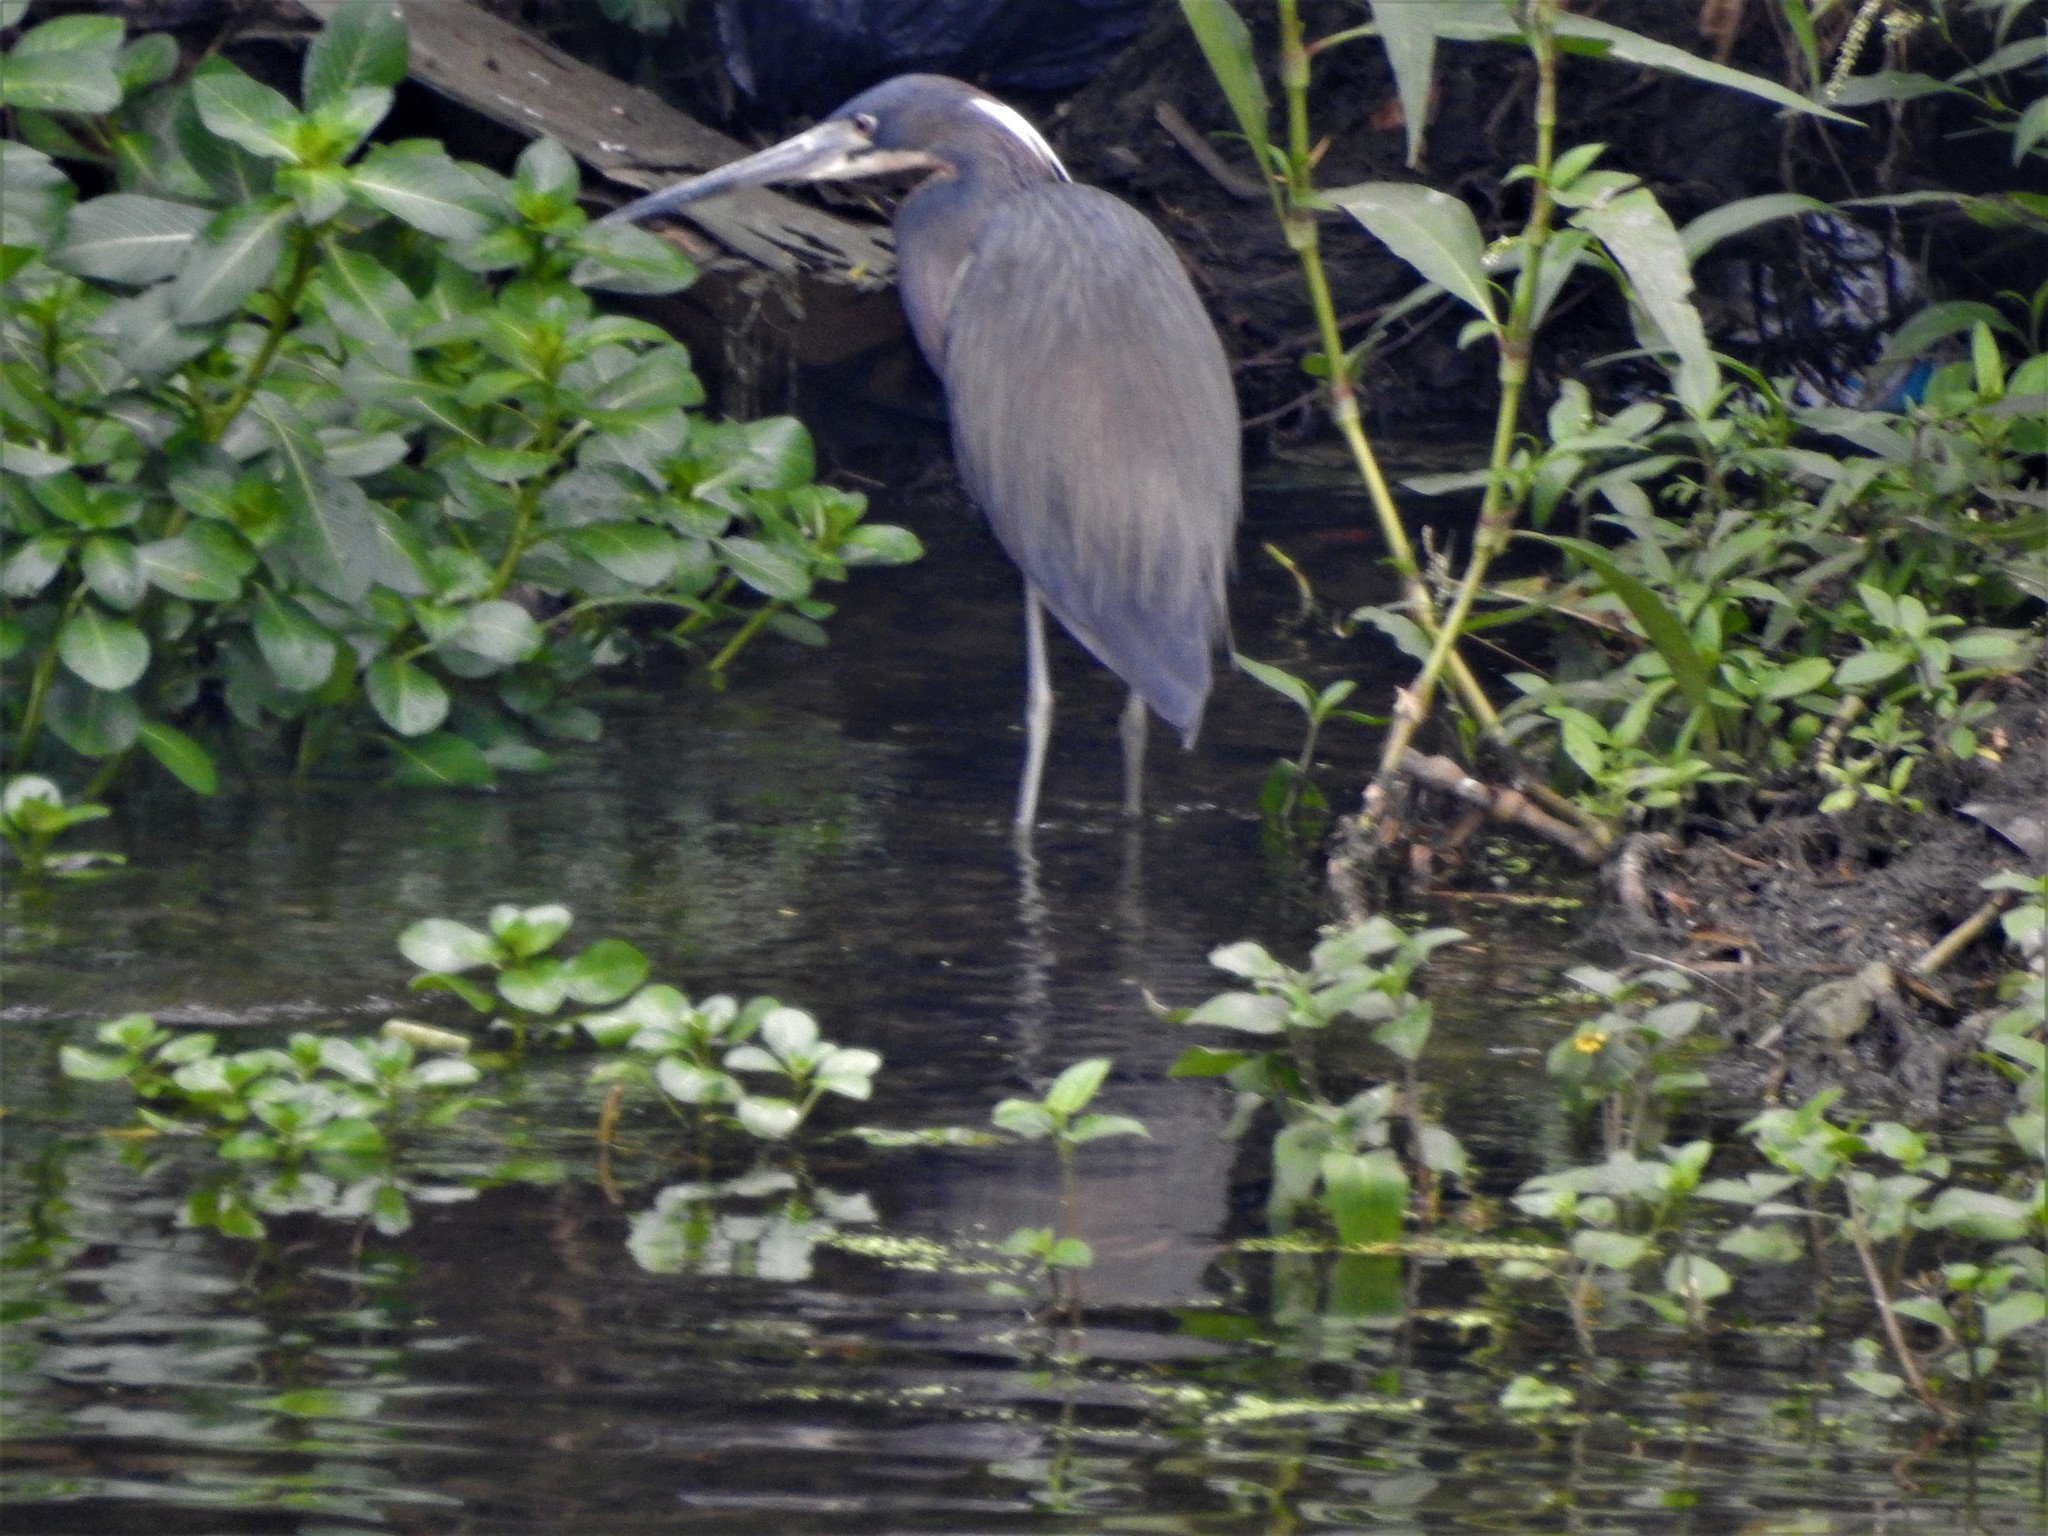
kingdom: Animalia
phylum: Chordata
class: Aves
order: Pelecaniformes
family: Ardeidae
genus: Egretta
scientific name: Egretta tricolor
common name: Tricolored heron
